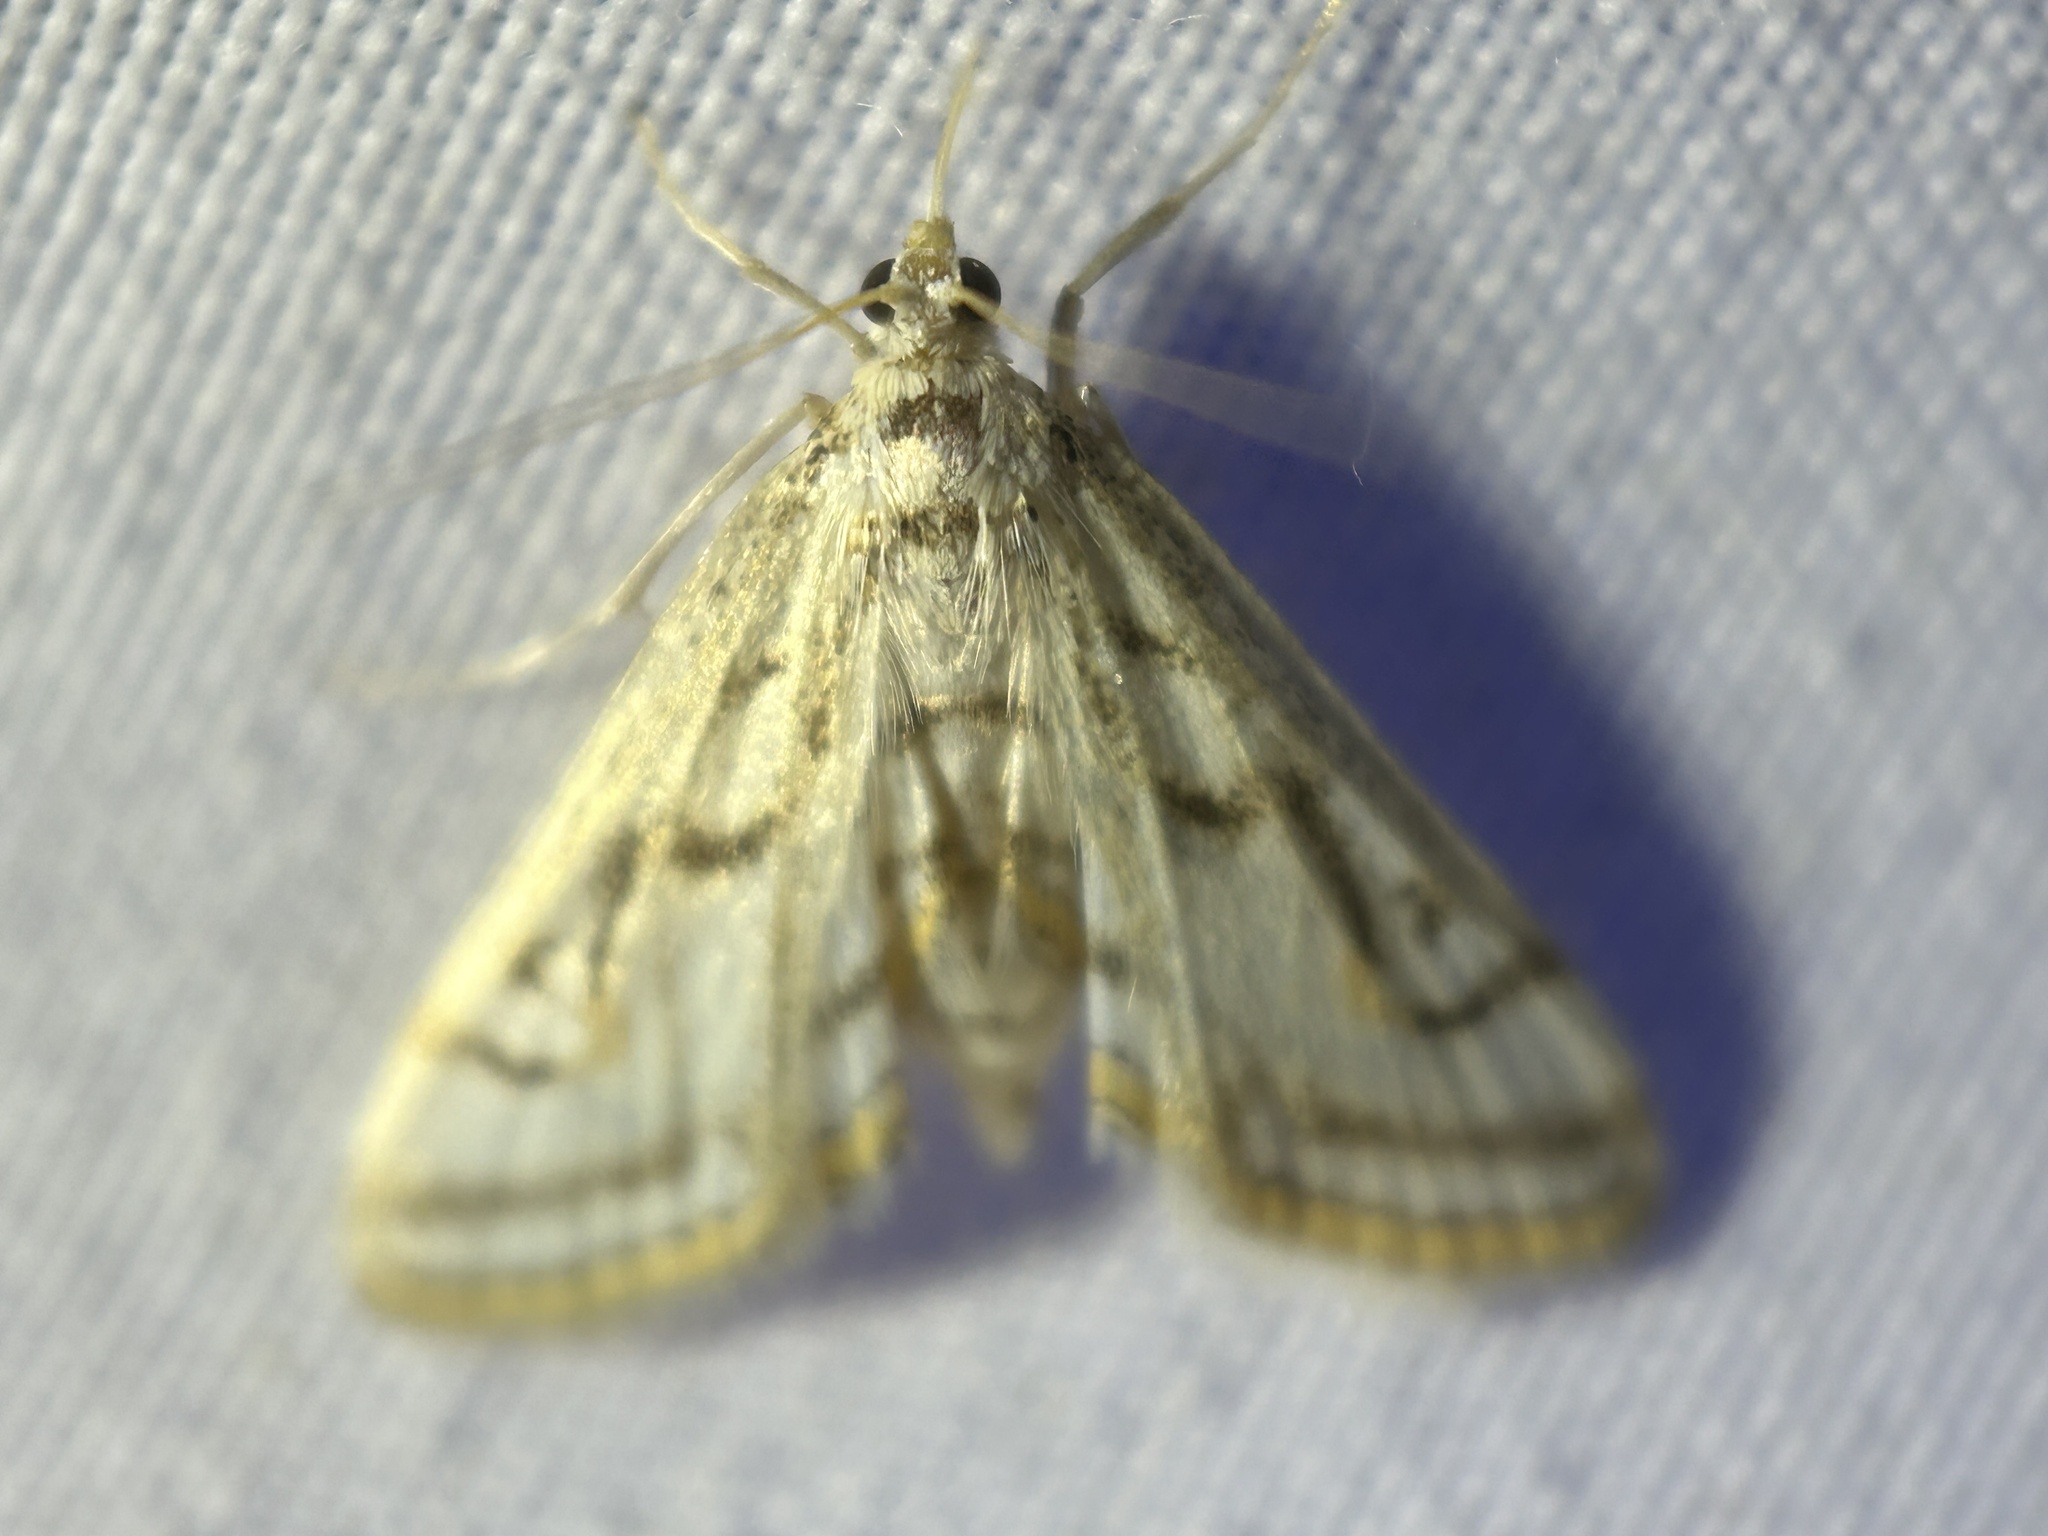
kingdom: Animalia
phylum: Arthropoda
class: Insecta
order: Lepidoptera
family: Crambidae
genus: Parapoynx
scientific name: Parapoynx badiusalis
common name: Chestnut-marked pondweed moth
